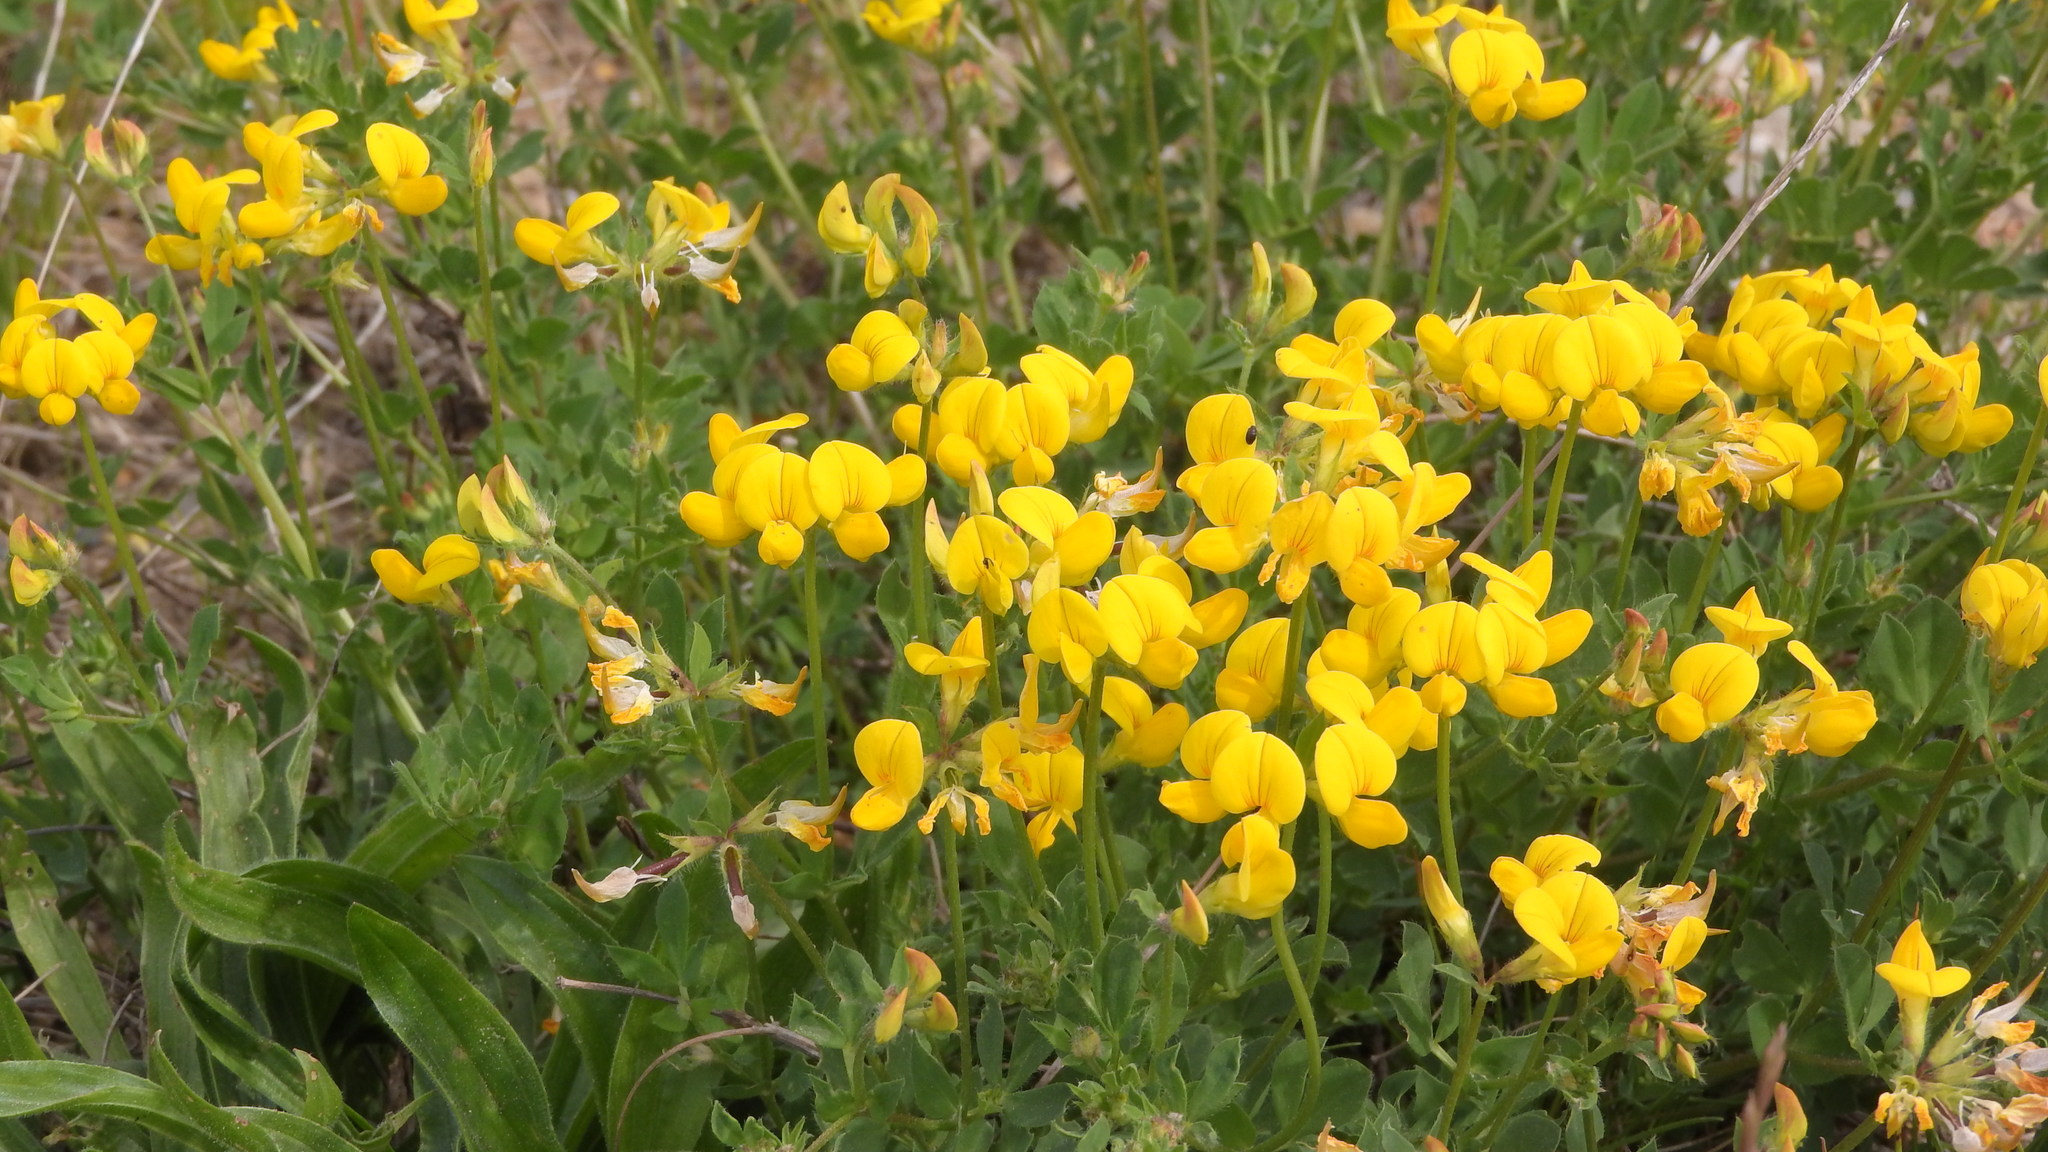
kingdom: Plantae
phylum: Tracheophyta
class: Magnoliopsida
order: Fabales
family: Fabaceae
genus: Lotus
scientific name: Lotus corniculatus
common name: Common bird's-foot-trefoil
